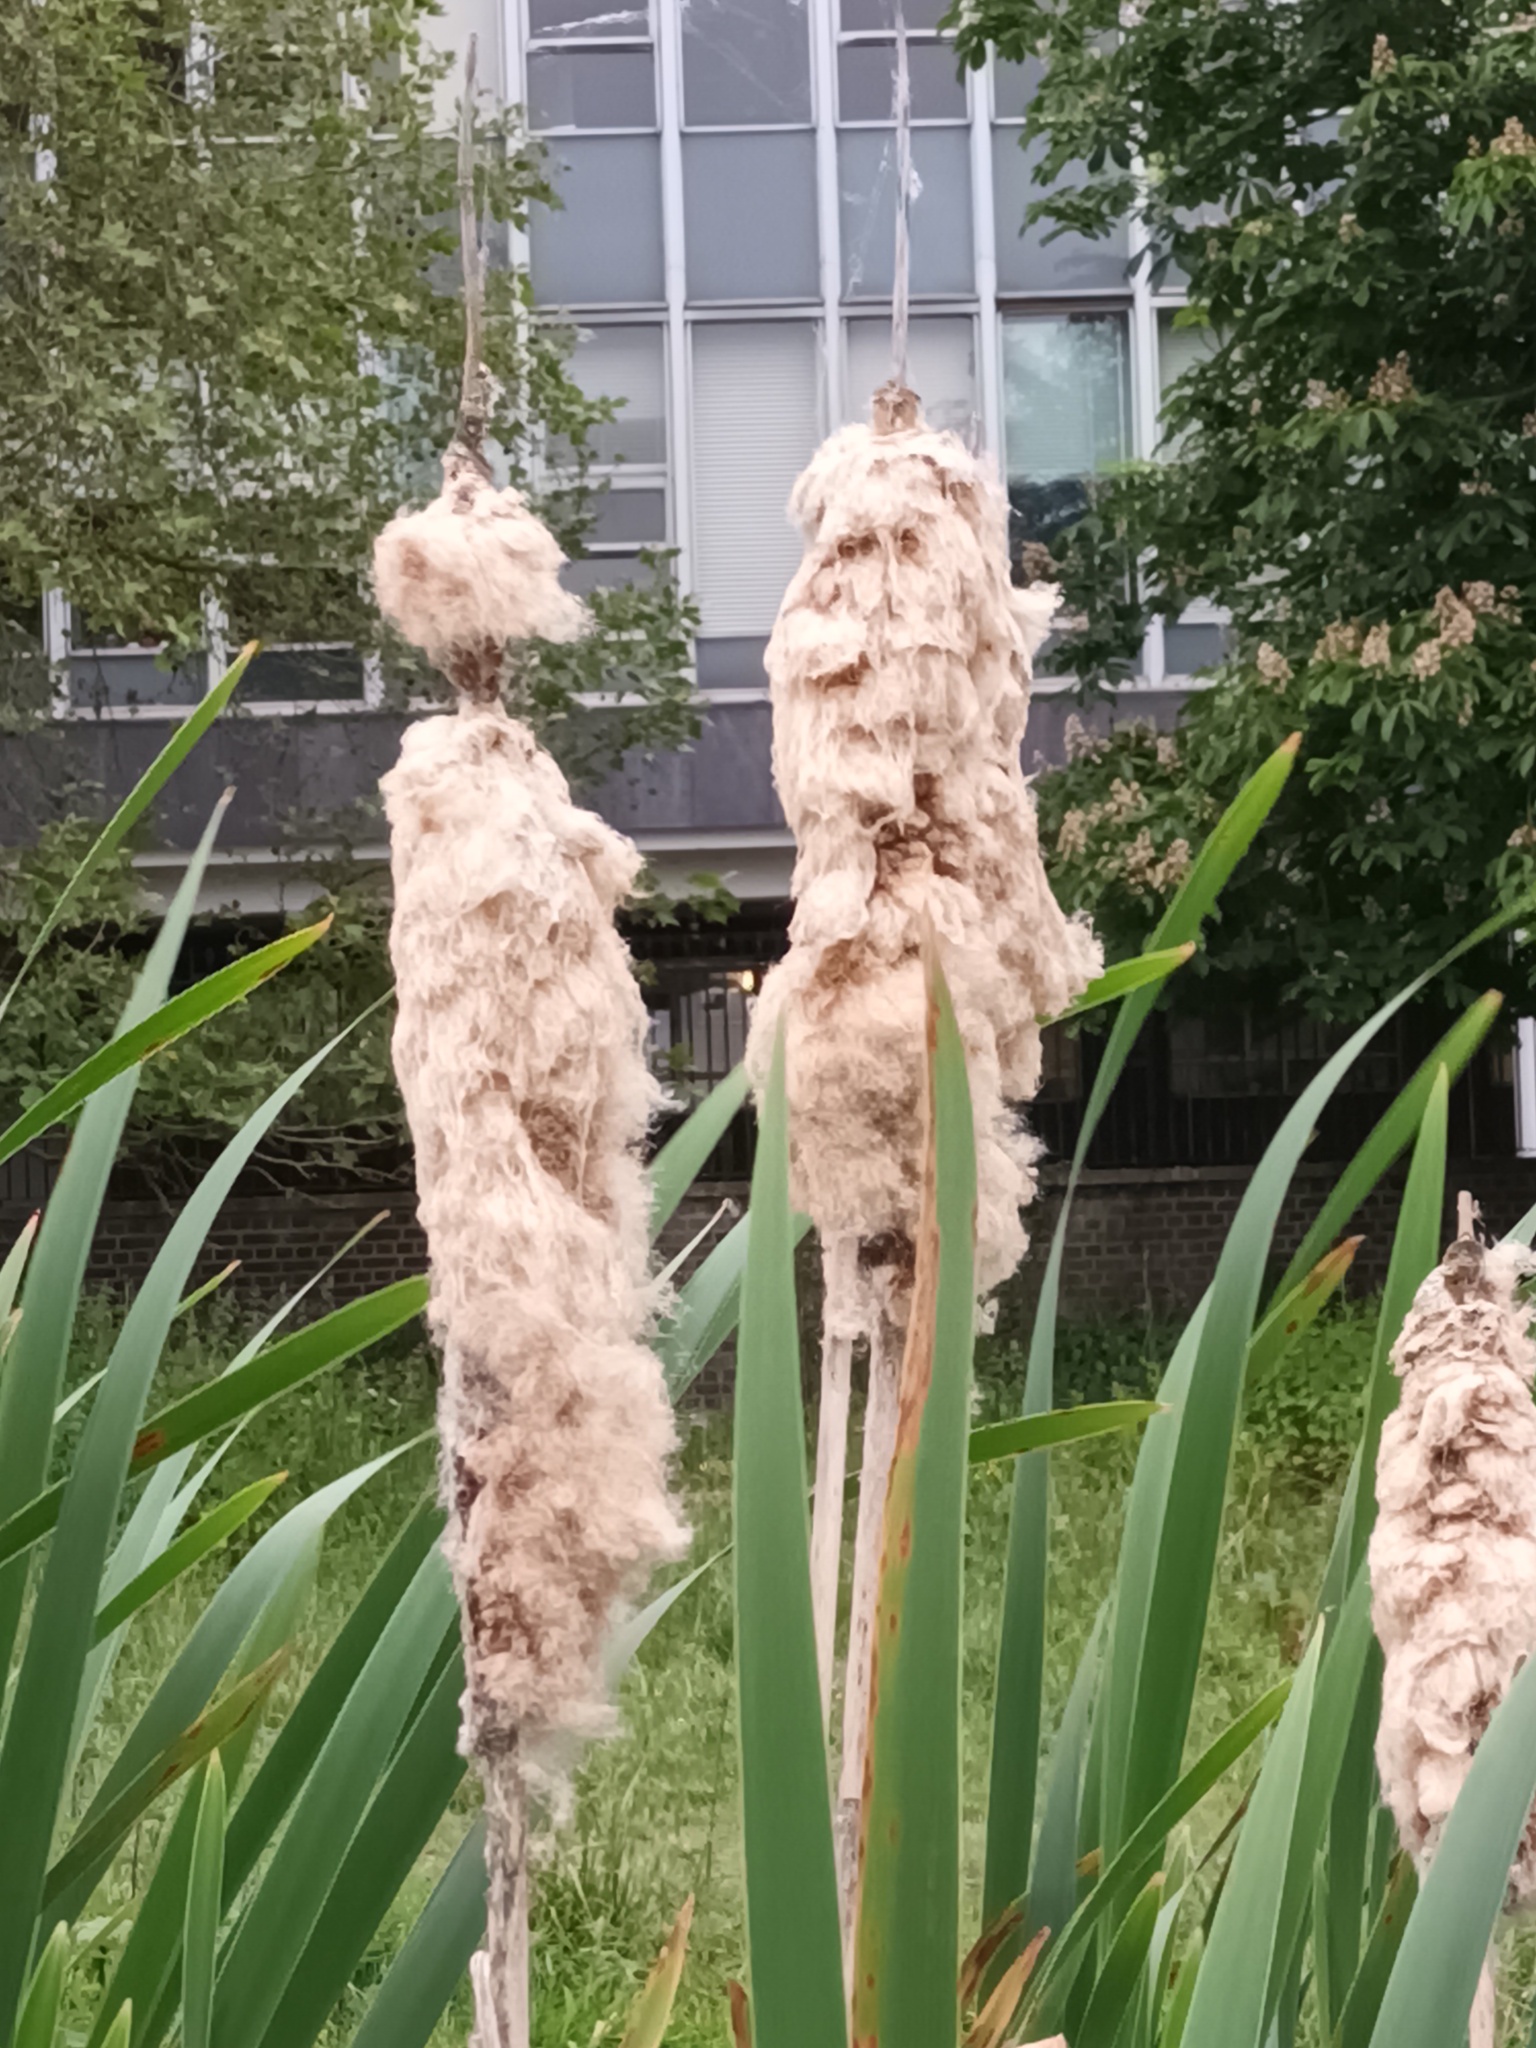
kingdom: Plantae
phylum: Tracheophyta
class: Liliopsida
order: Poales
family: Typhaceae
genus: Typha
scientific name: Typha latifolia
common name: Broadleaf cattail
